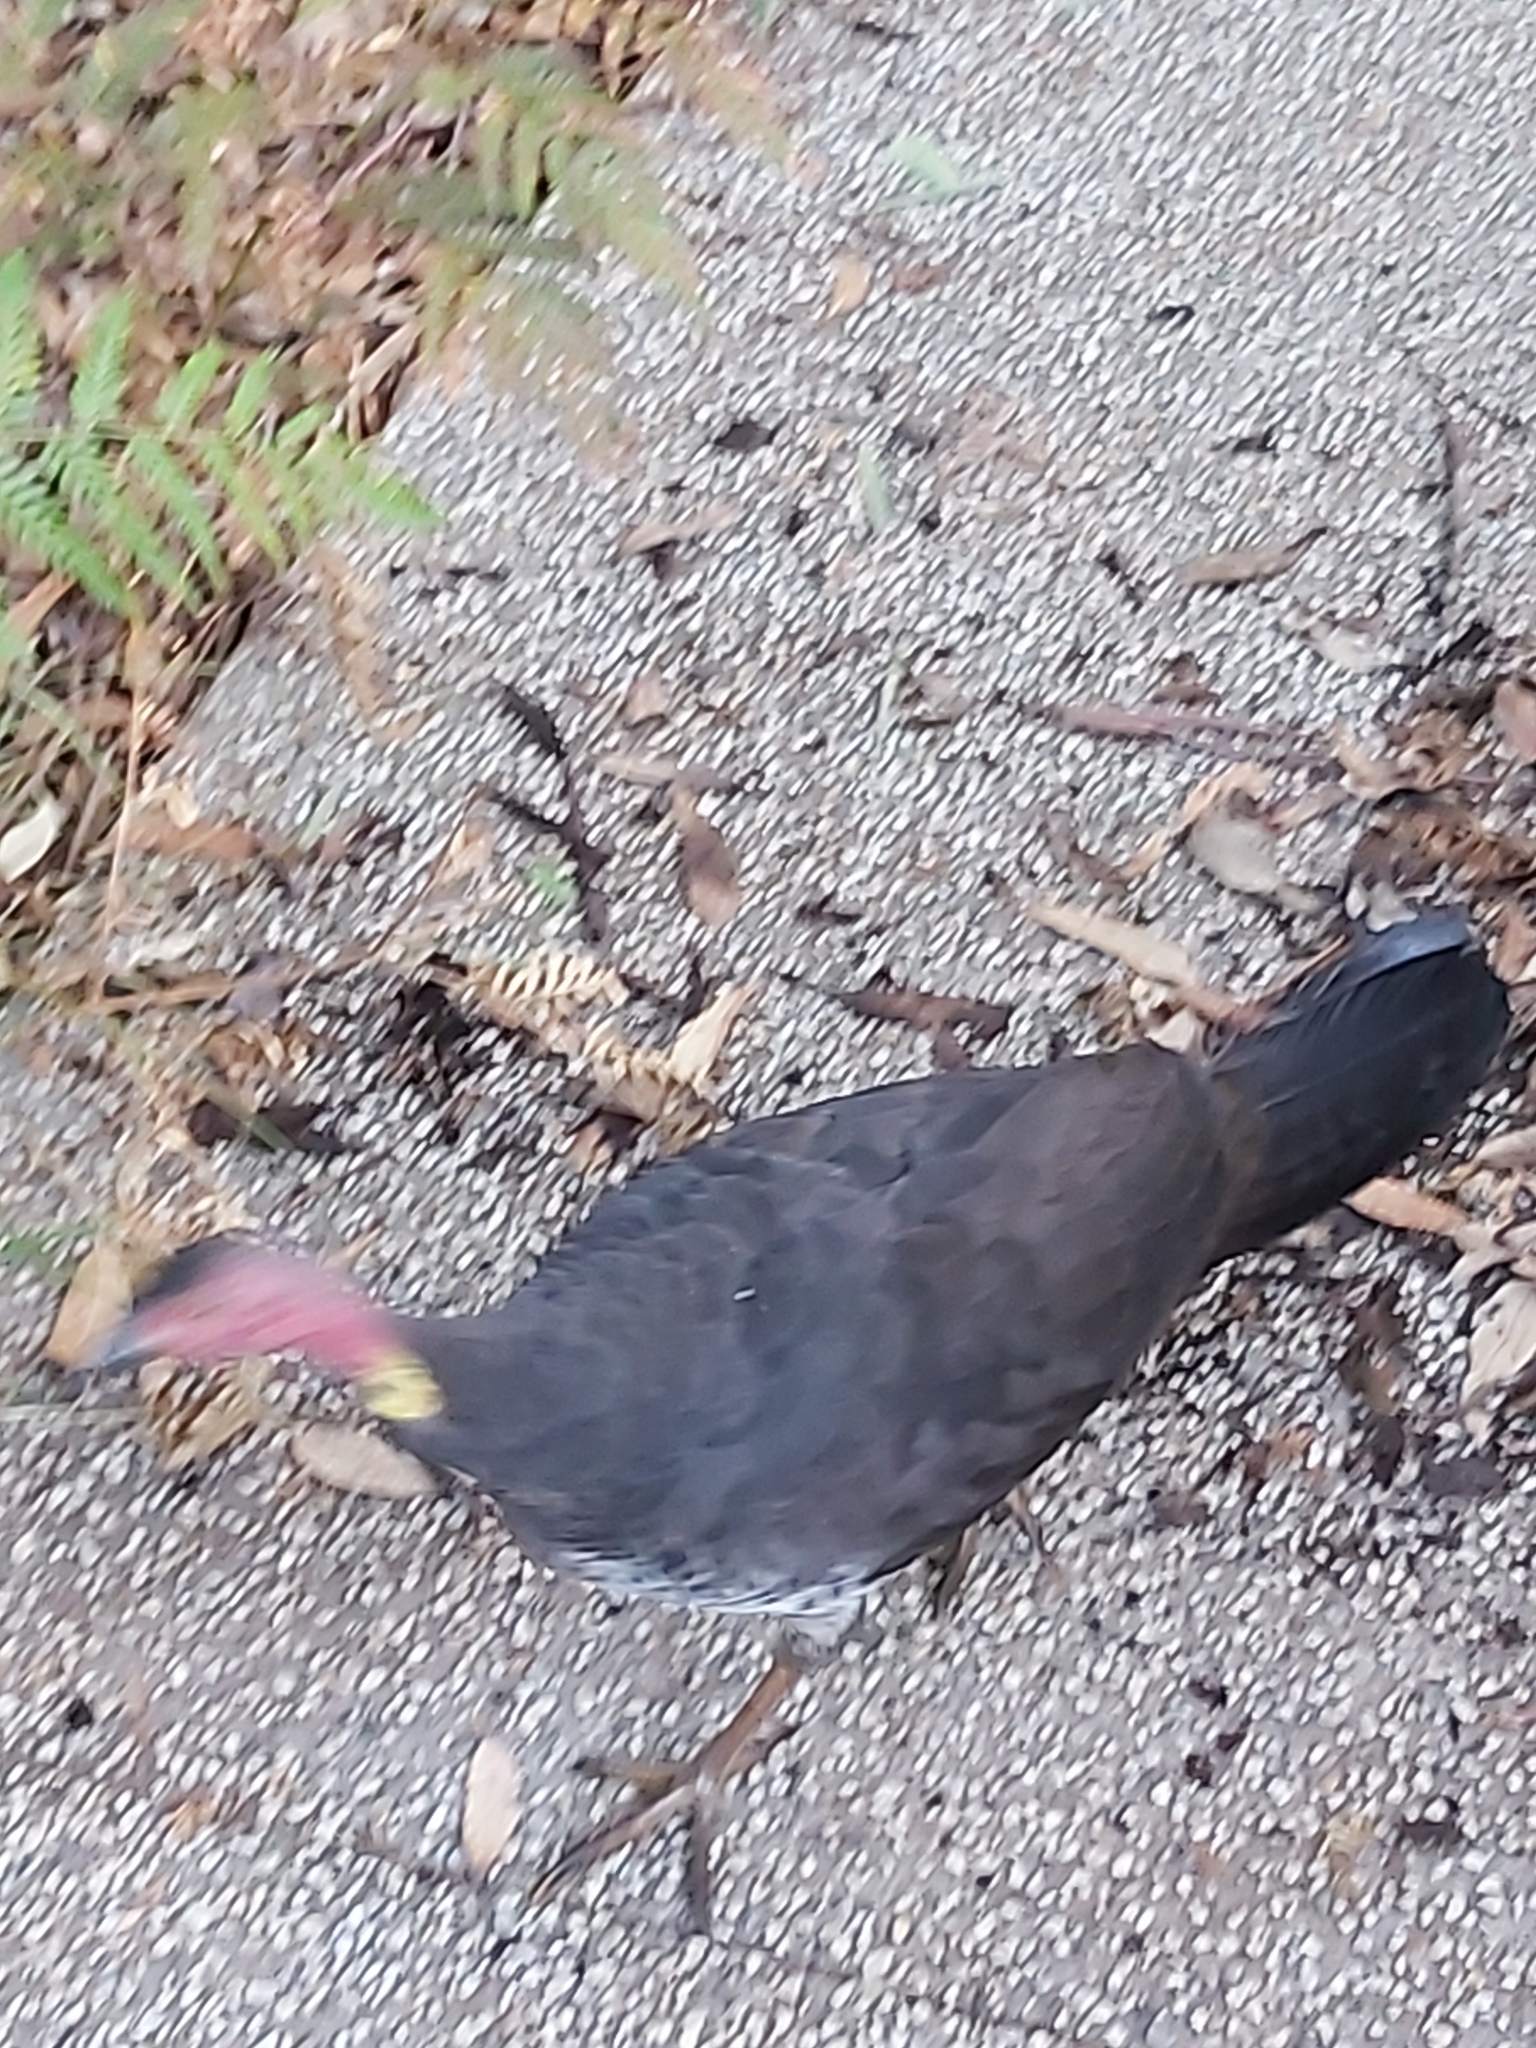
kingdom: Animalia
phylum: Chordata
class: Aves
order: Galliformes
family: Megapodiidae
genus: Alectura
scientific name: Alectura lathami
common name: Australian brushturkey
